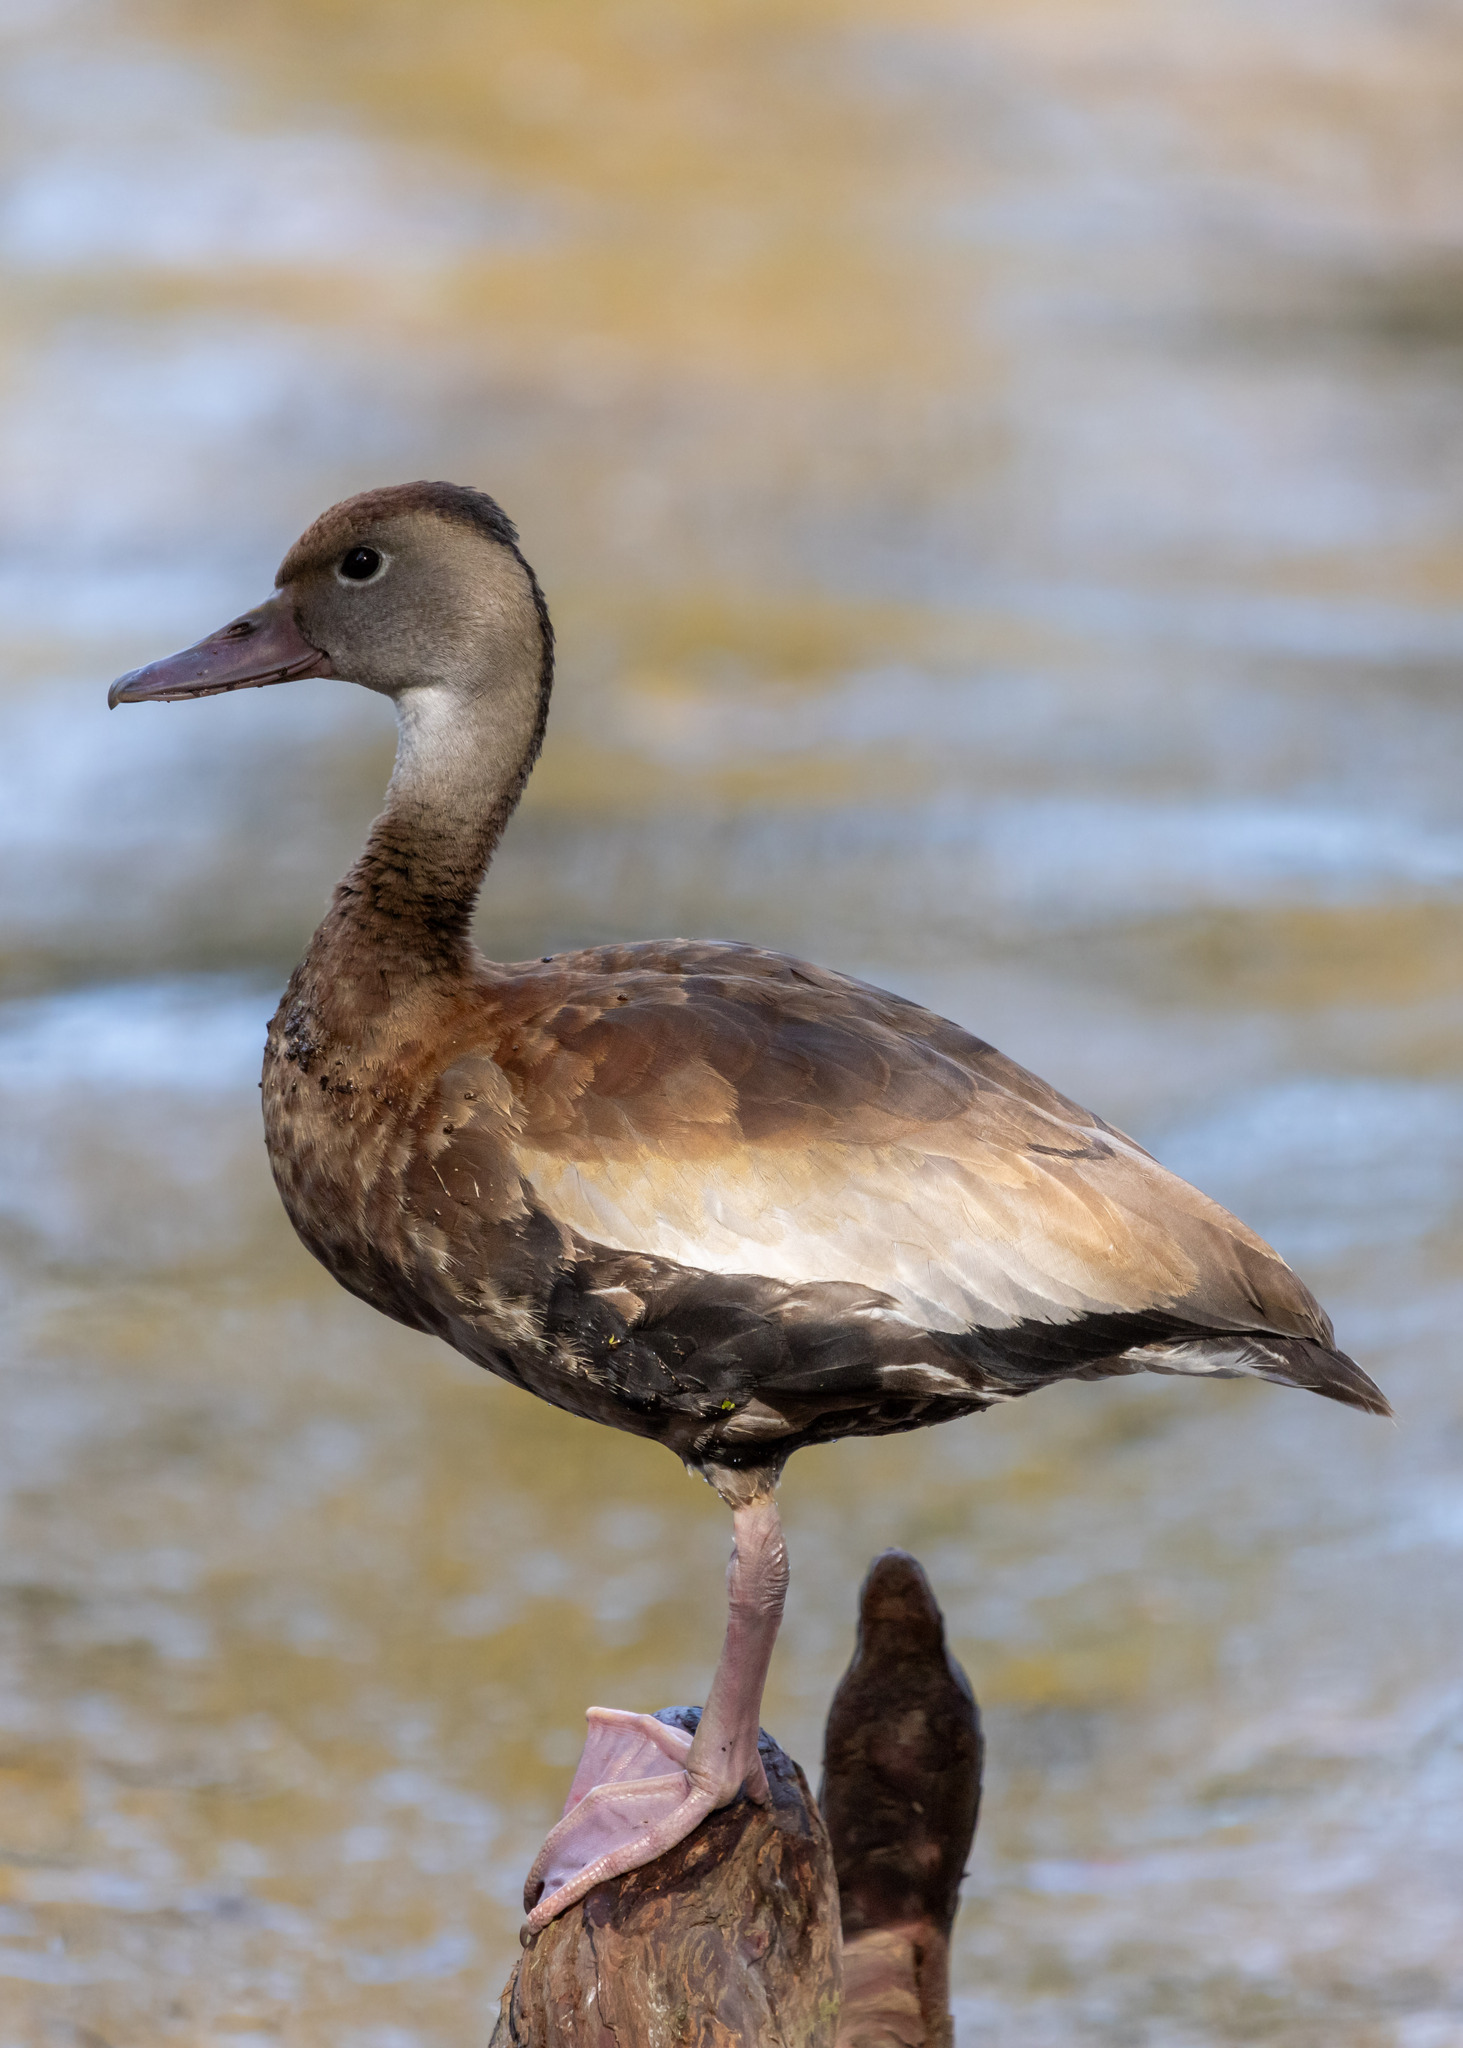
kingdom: Animalia
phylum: Chordata
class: Aves
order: Anseriformes
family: Anatidae
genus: Dendrocygna
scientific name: Dendrocygna autumnalis
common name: Black-bellied whistling duck
